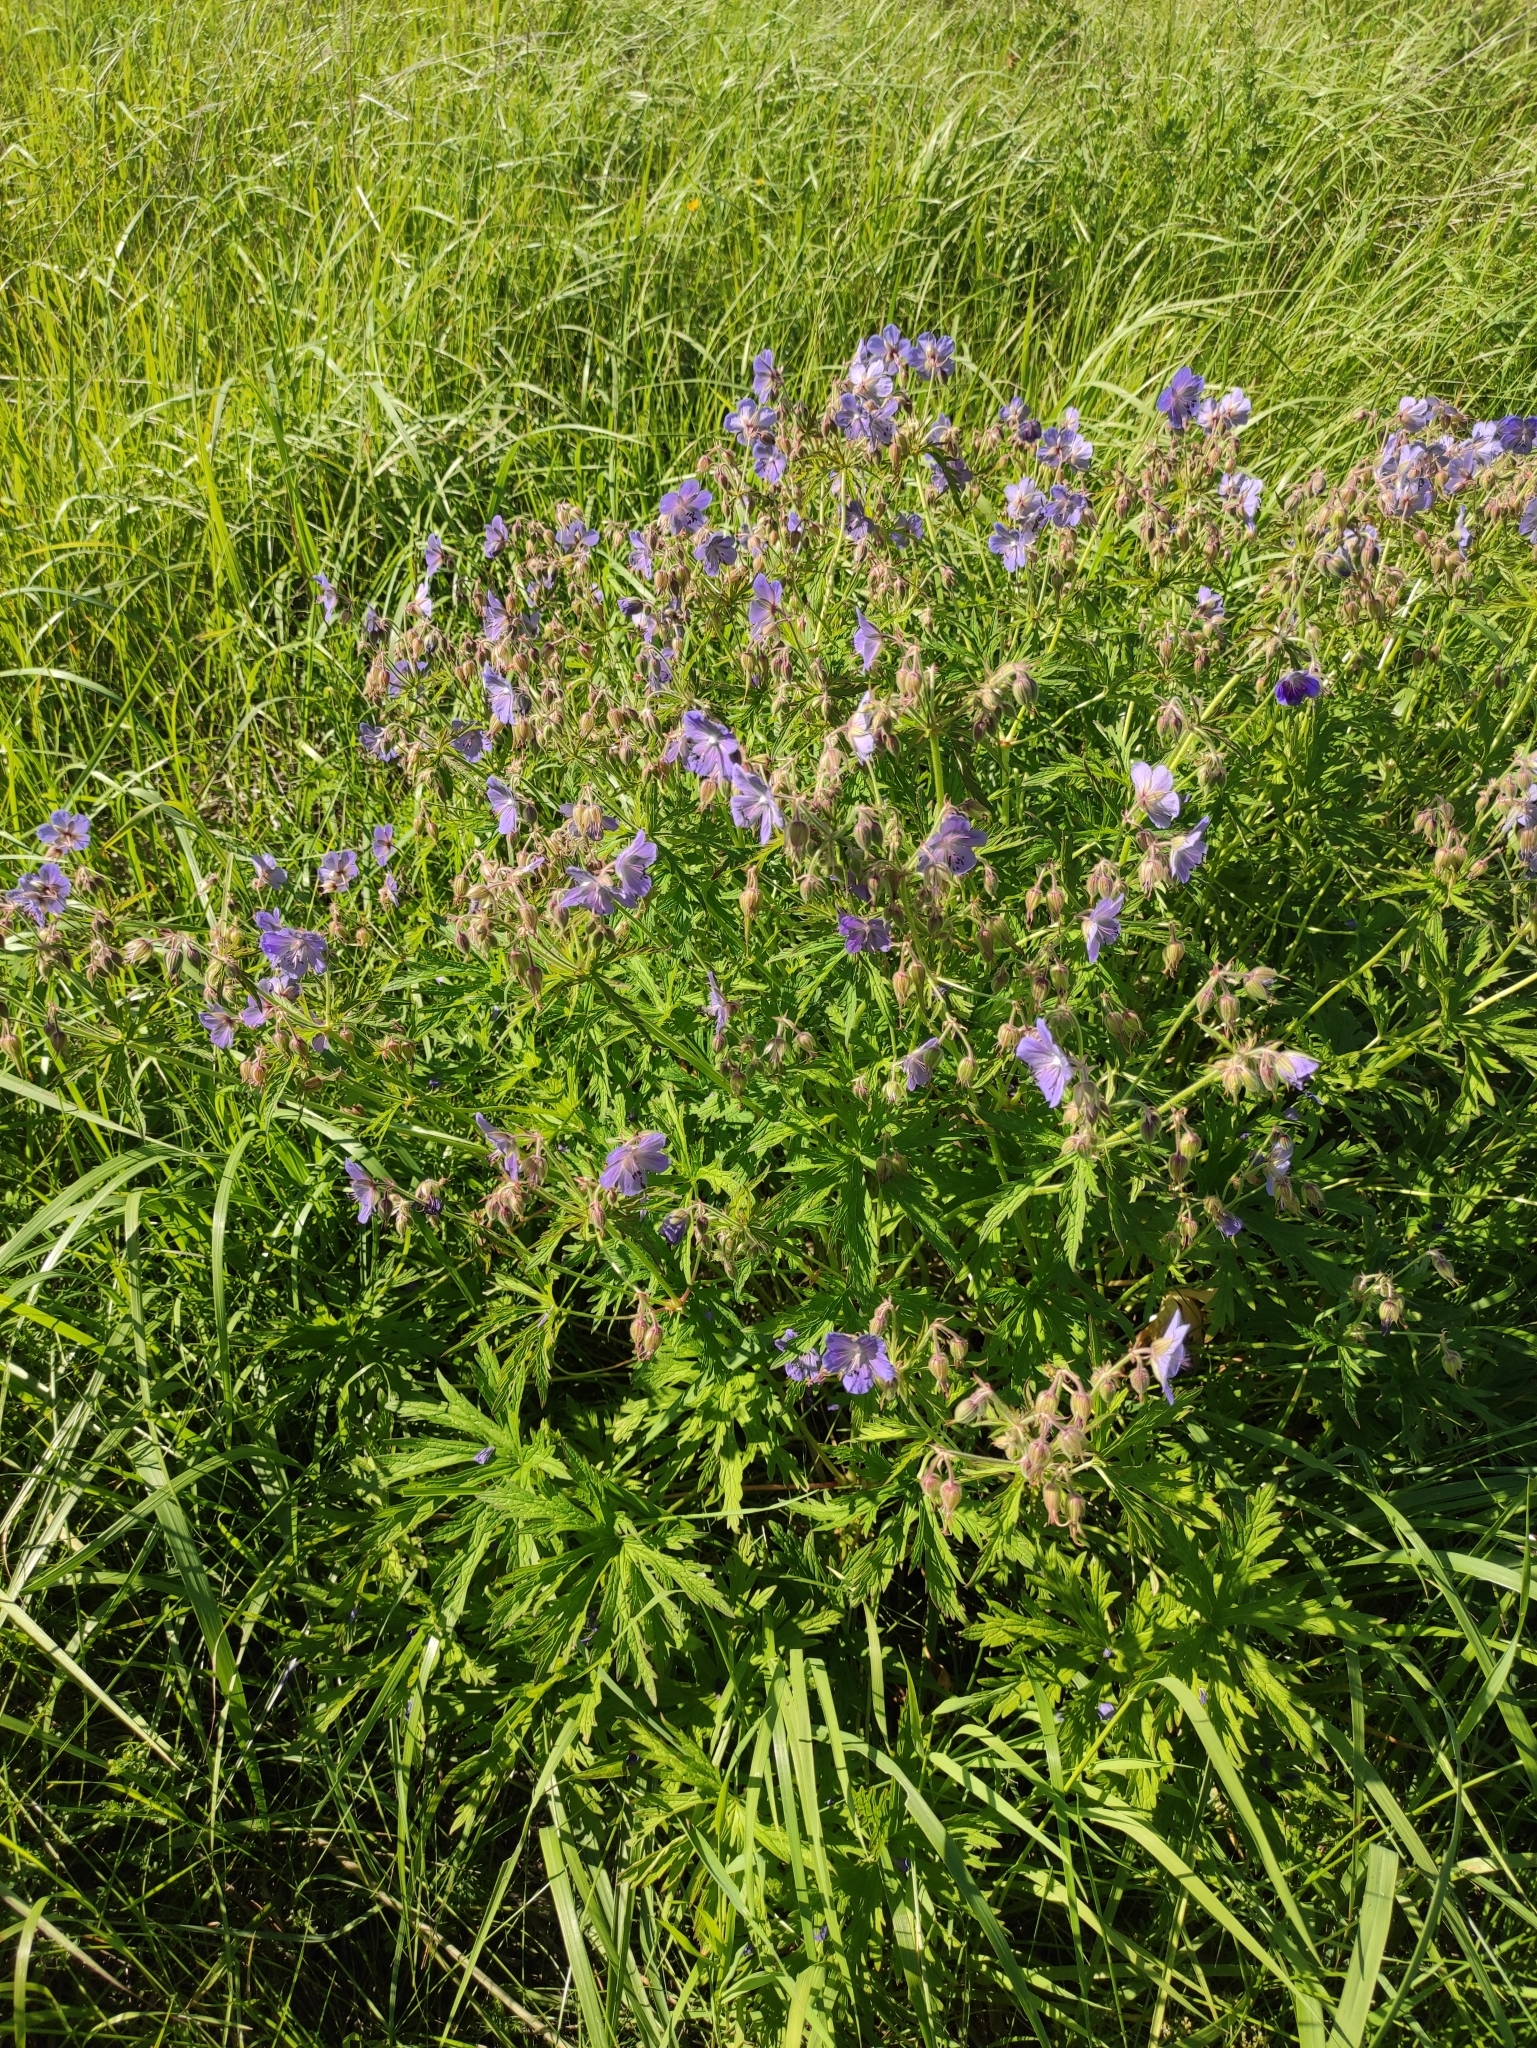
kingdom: Plantae
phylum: Tracheophyta
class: Magnoliopsida
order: Geraniales
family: Geraniaceae
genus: Geranium
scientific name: Geranium pratense
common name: Meadow crane's-bill
